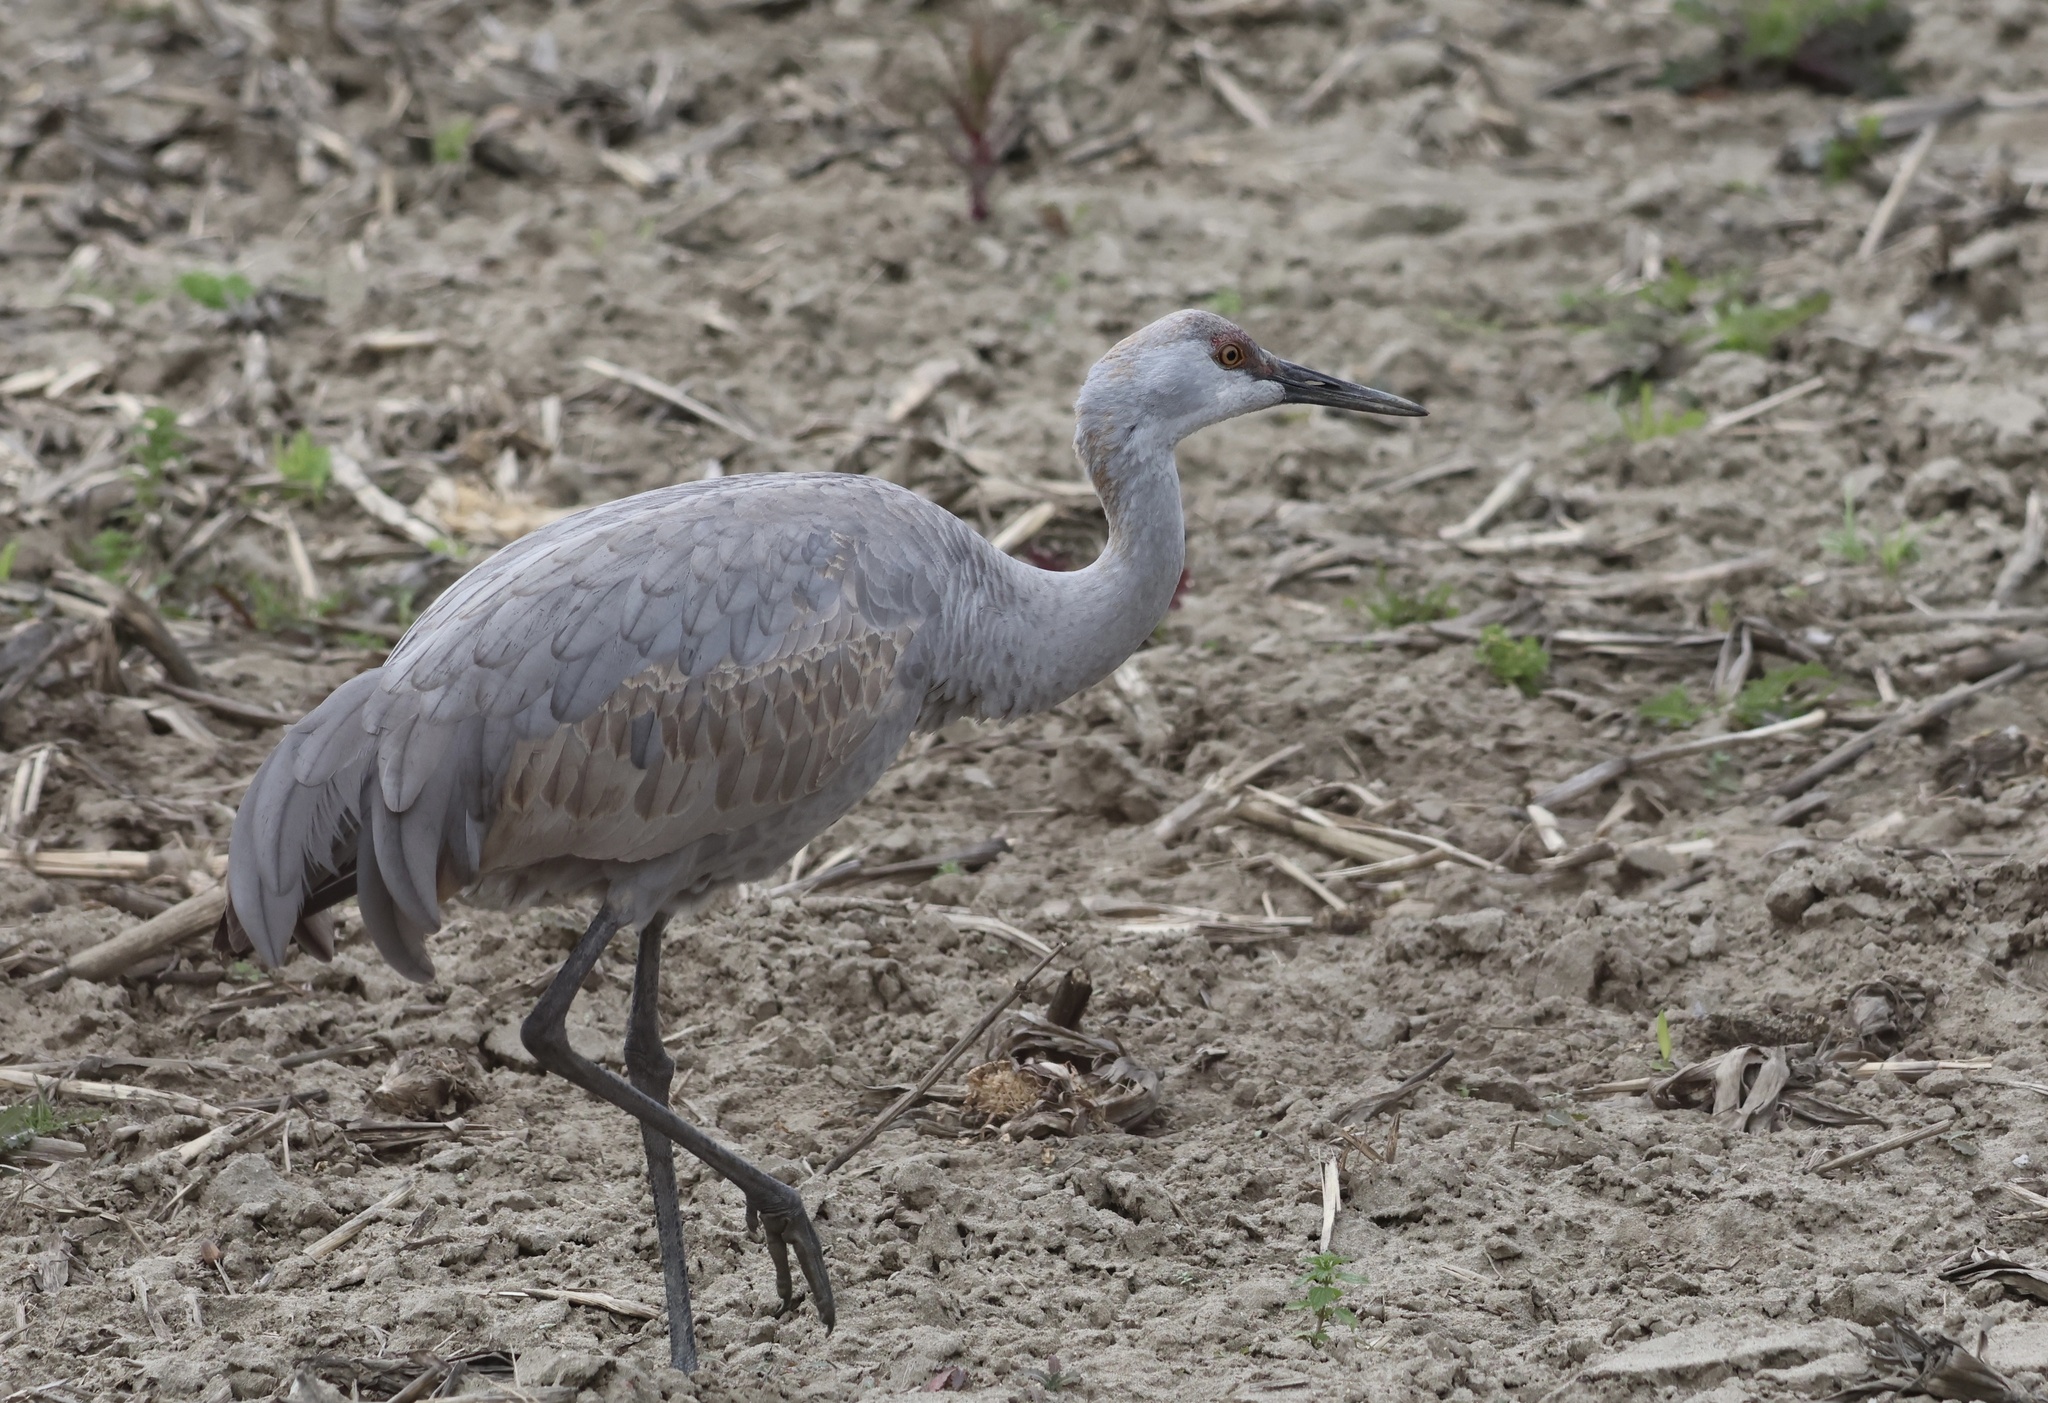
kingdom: Animalia
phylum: Chordata
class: Aves
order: Gruiformes
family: Gruidae
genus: Grus
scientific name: Grus canadensis
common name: Sandhill crane
